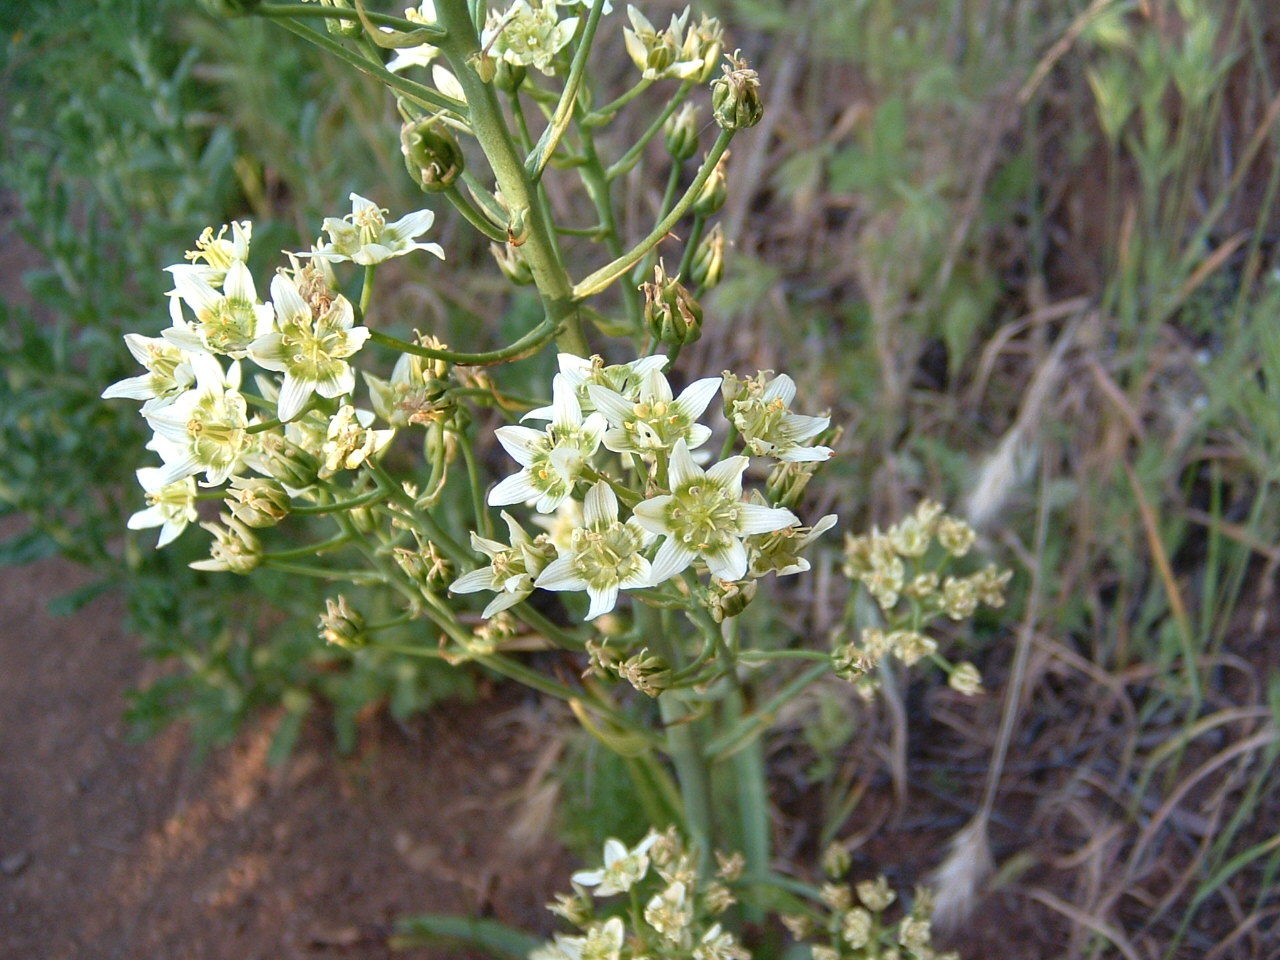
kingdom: Plantae
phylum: Tracheophyta
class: Liliopsida
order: Liliales
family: Melanthiaceae
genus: Toxicoscordion
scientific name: Toxicoscordion fremontii
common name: Fremont's death camas
